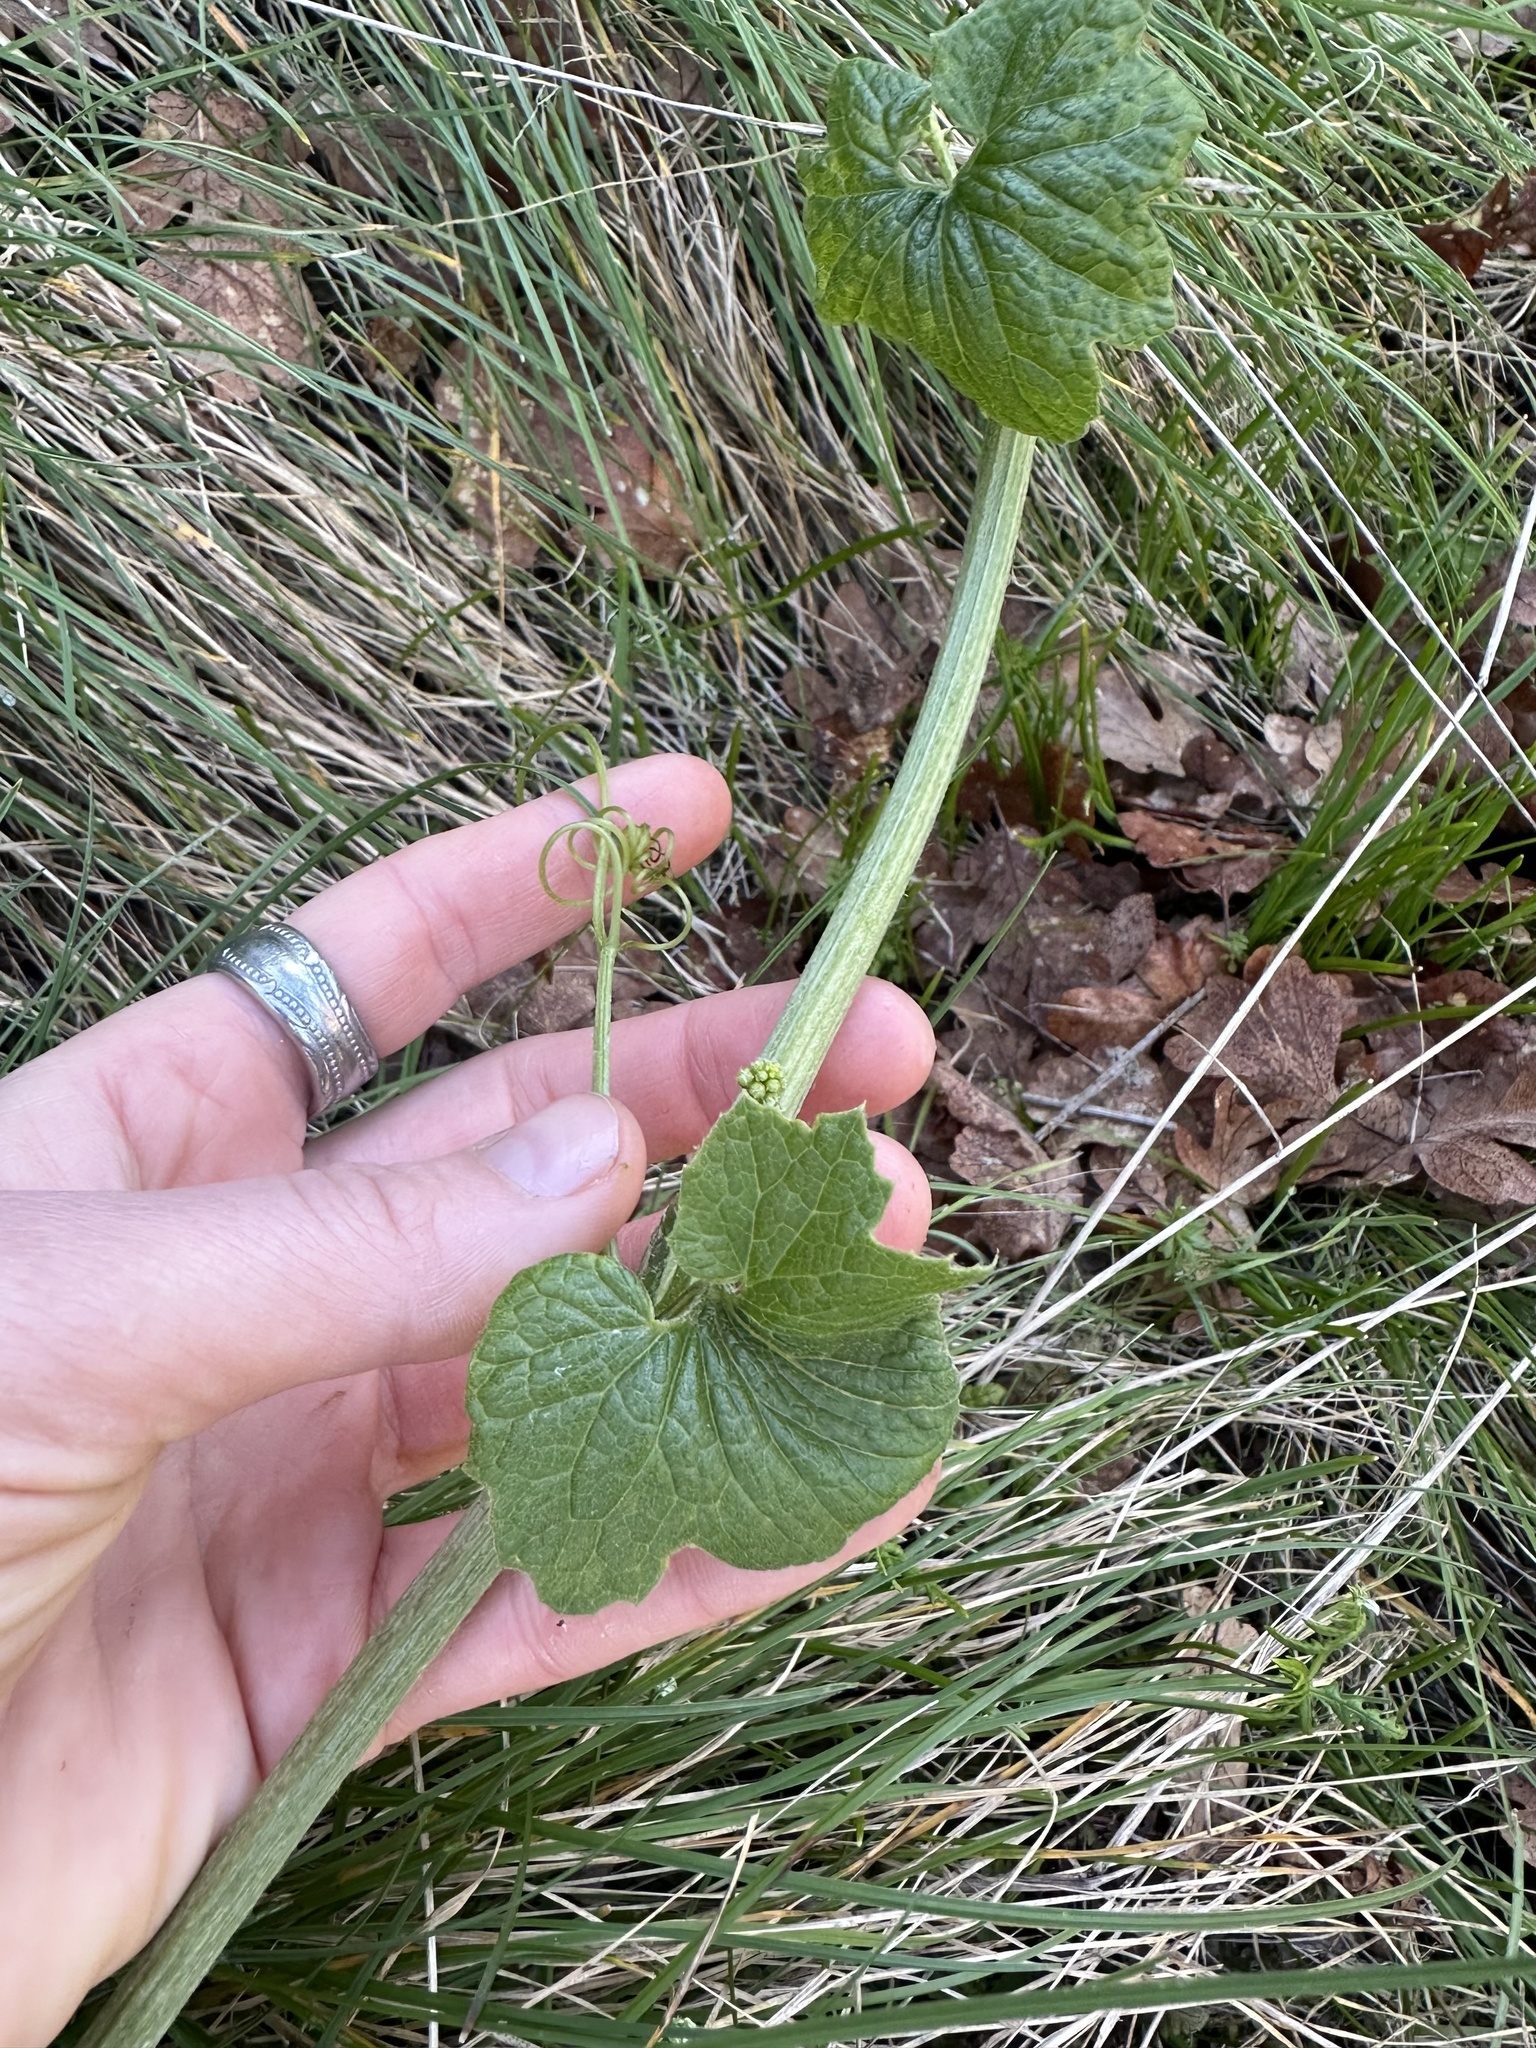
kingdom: Plantae
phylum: Tracheophyta
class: Magnoliopsida
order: Cucurbitales
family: Cucurbitaceae
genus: Marah
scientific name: Marah oregana
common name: Coastal manroot
